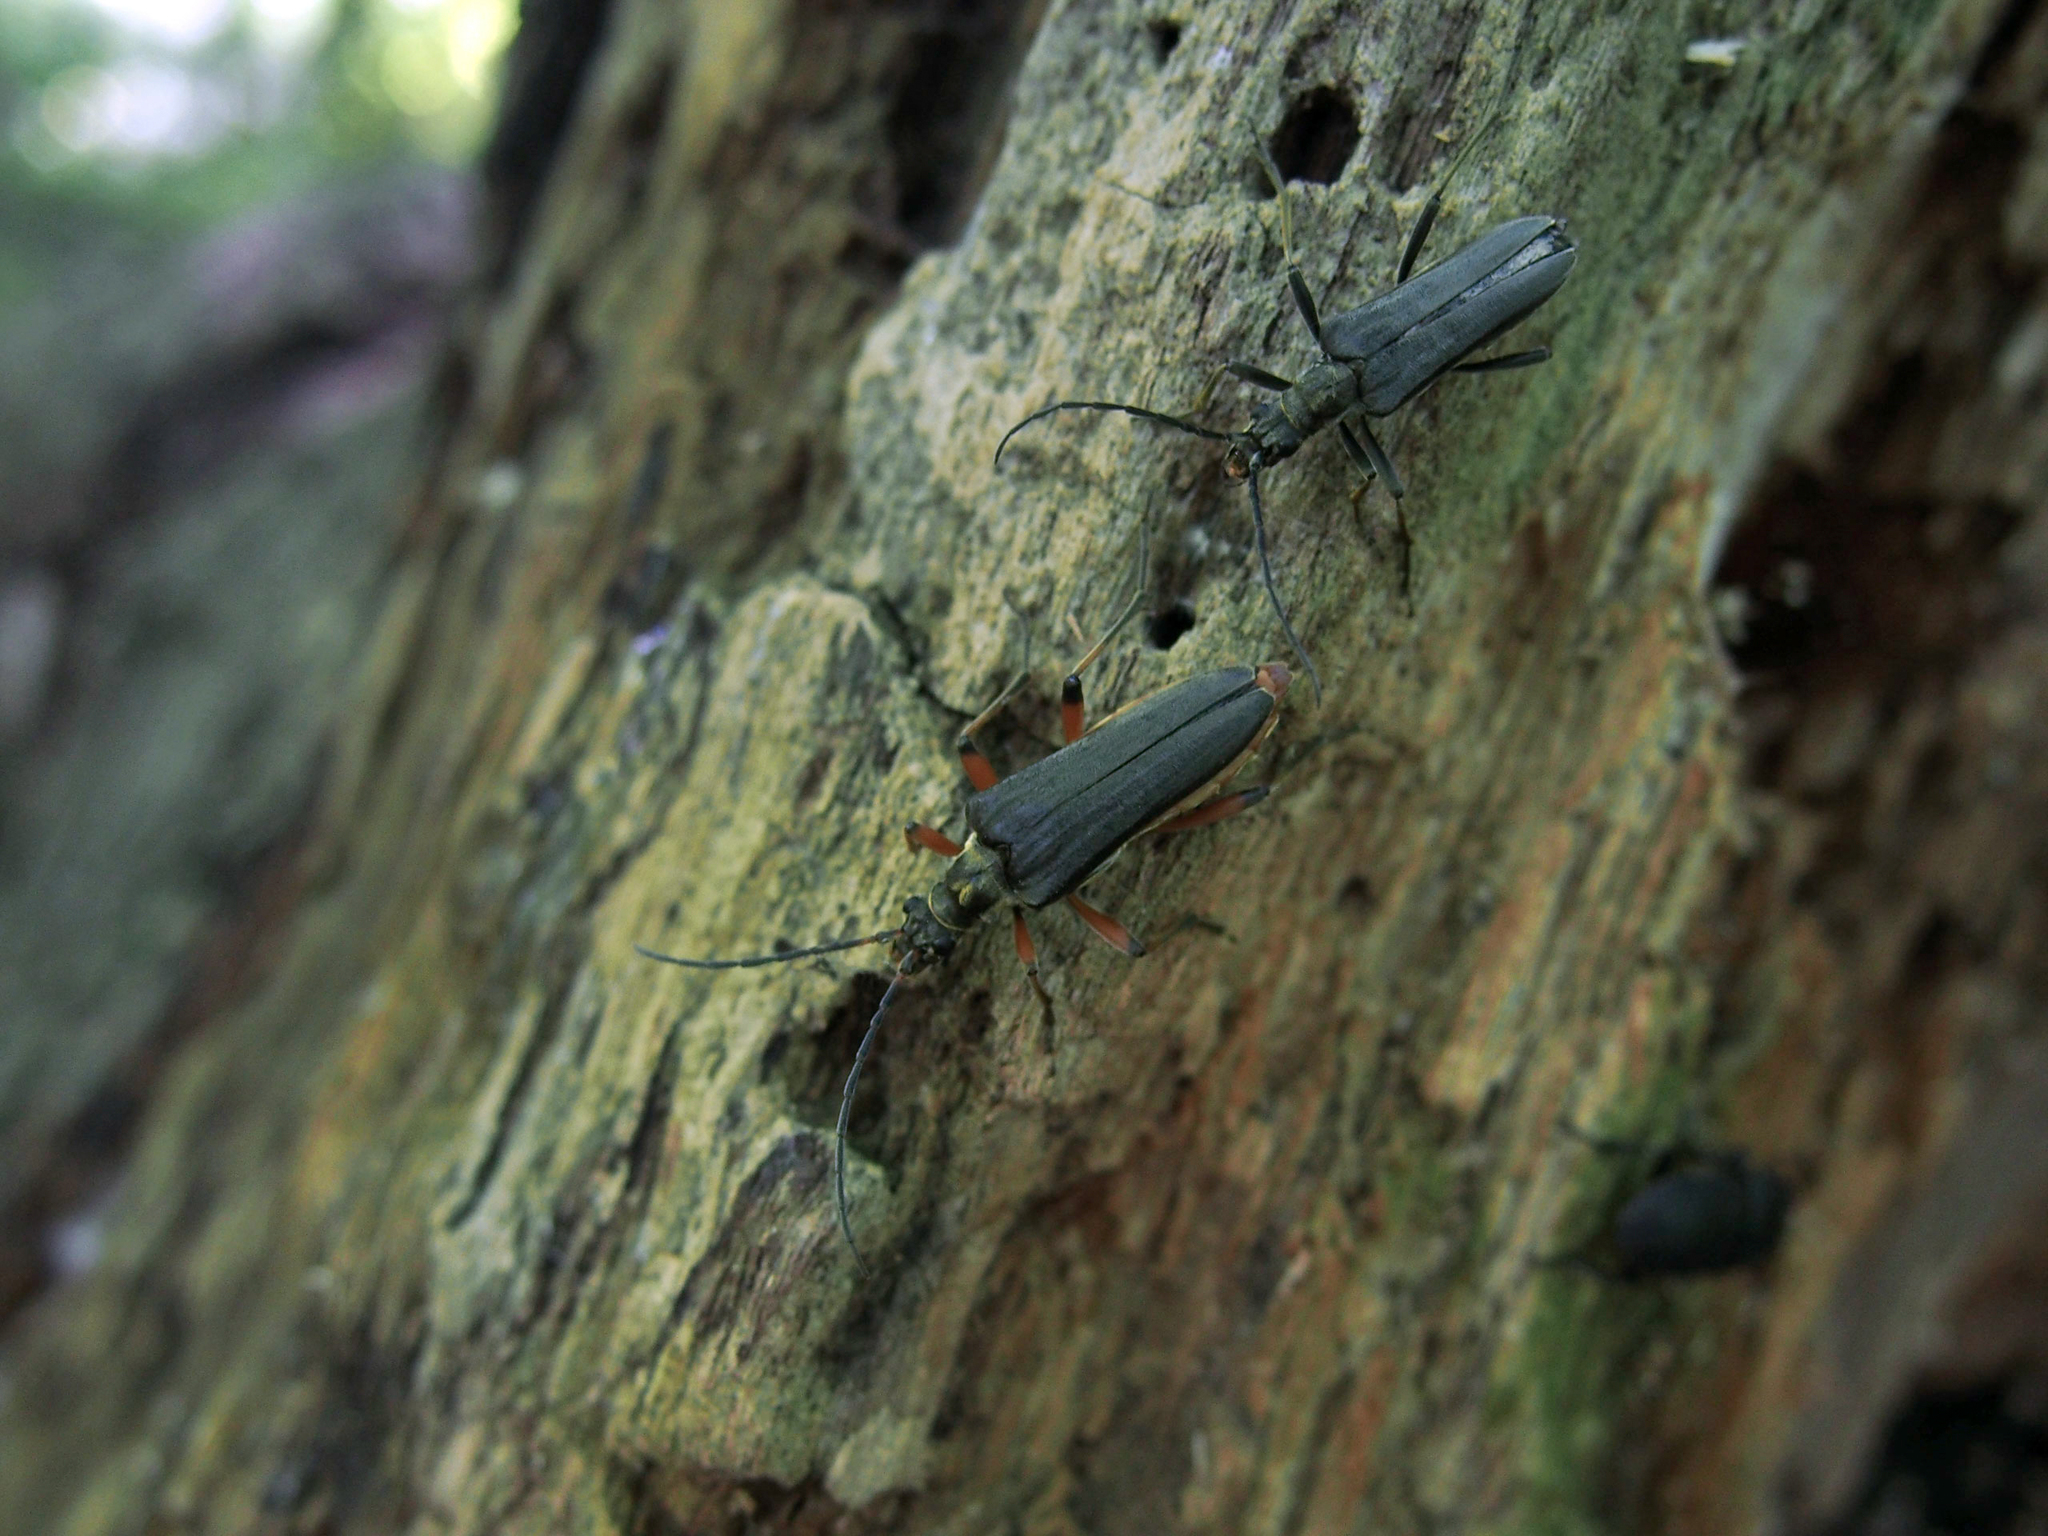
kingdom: Animalia
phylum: Arthropoda
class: Insecta
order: Coleoptera
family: Cerambycidae
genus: Stenocorus
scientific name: Stenocorus meridianus
